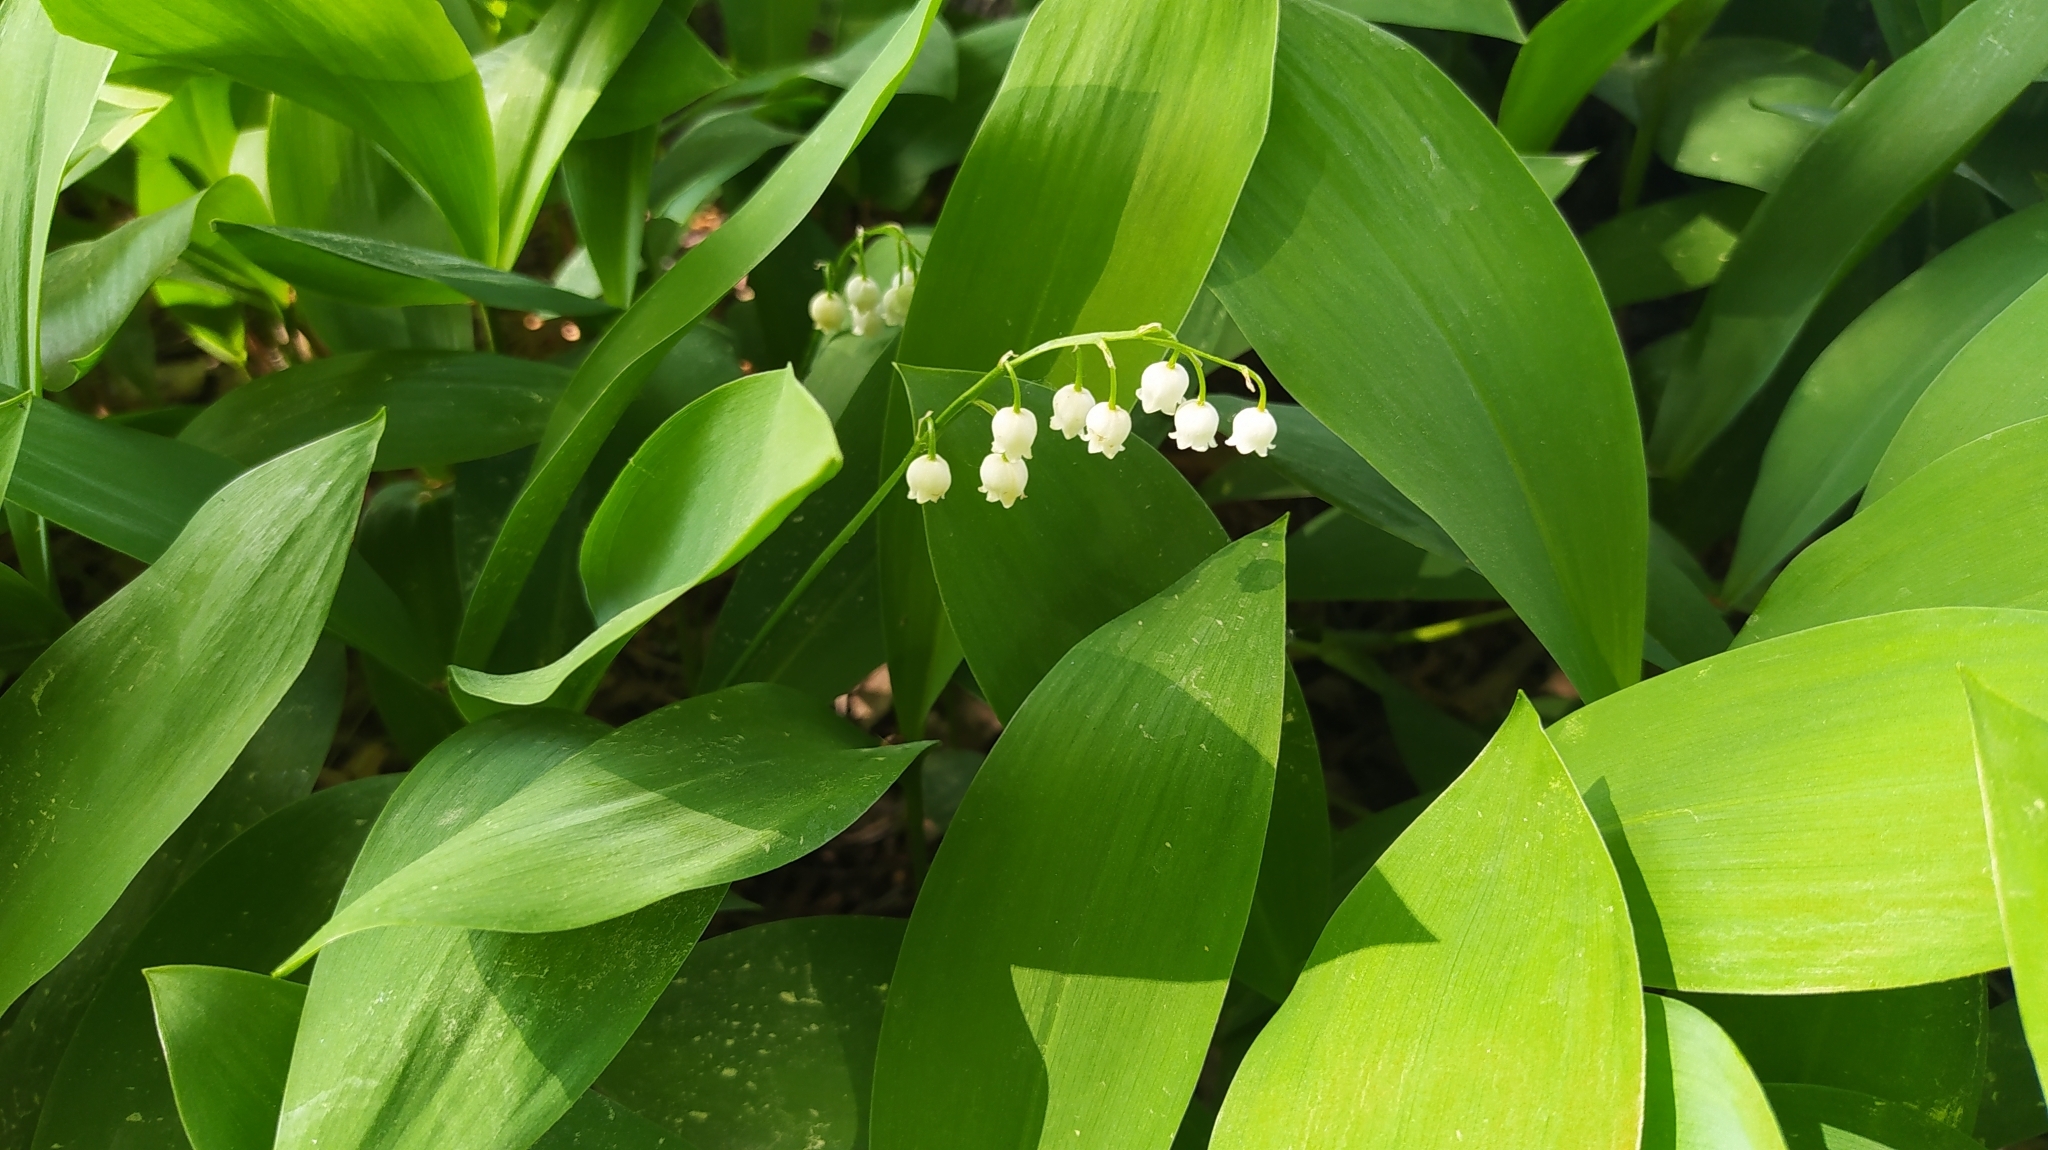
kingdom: Plantae
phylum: Tracheophyta
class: Liliopsida
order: Asparagales
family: Asparagaceae
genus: Convallaria
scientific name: Convallaria majalis
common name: Lily-of-the-valley
